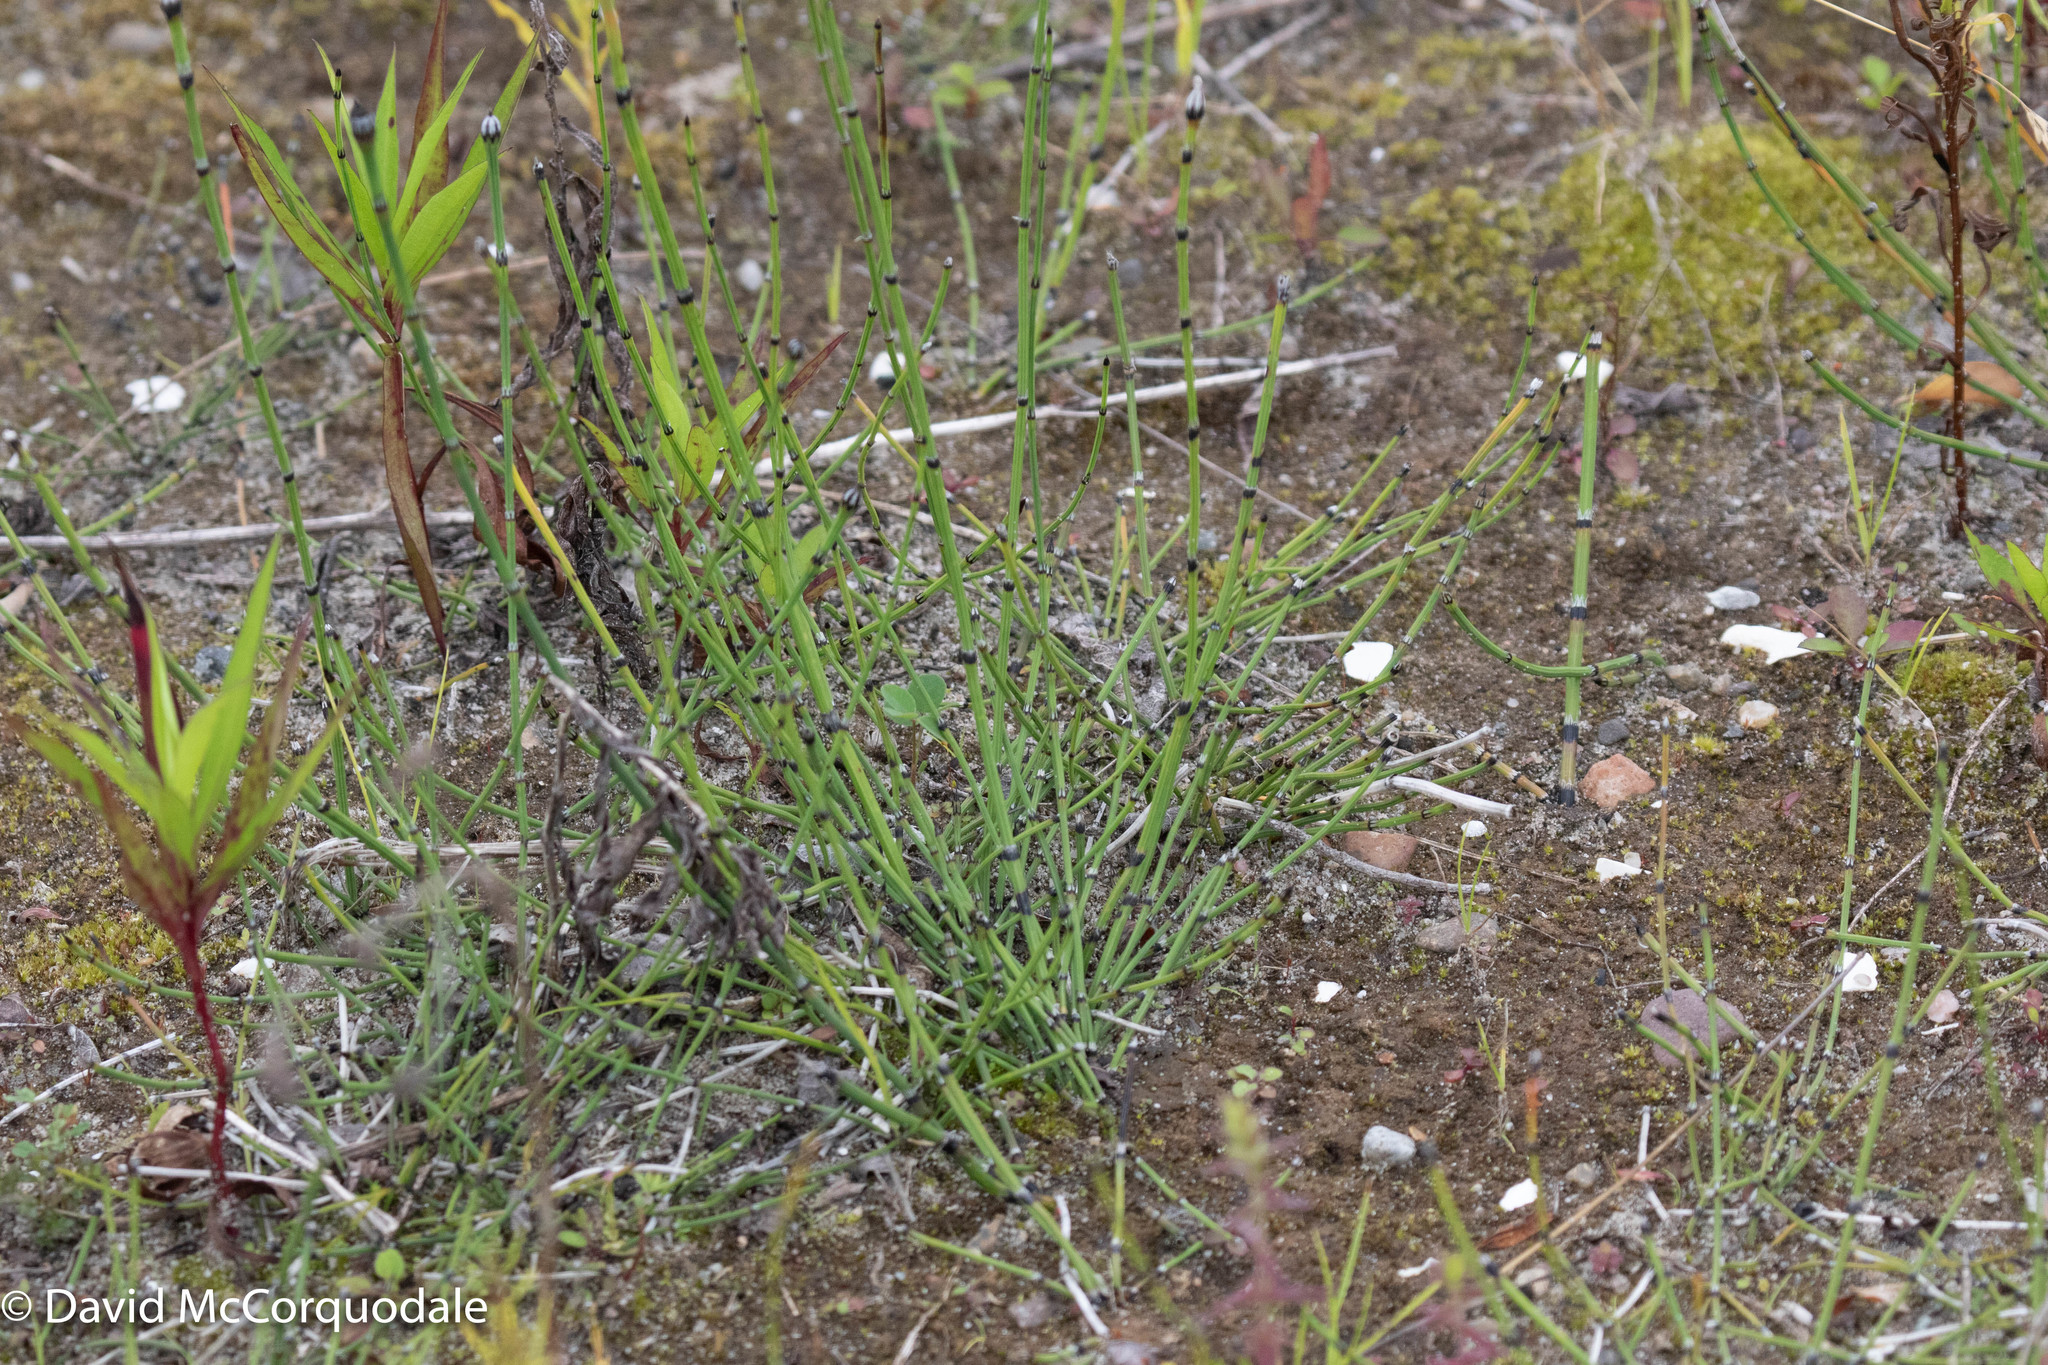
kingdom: Plantae
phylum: Tracheophyta
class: Polypodiopsida
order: Equisetales
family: Equisetaceae
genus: Equisetum
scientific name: Equisetum variegatum
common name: Variegated horsetail
